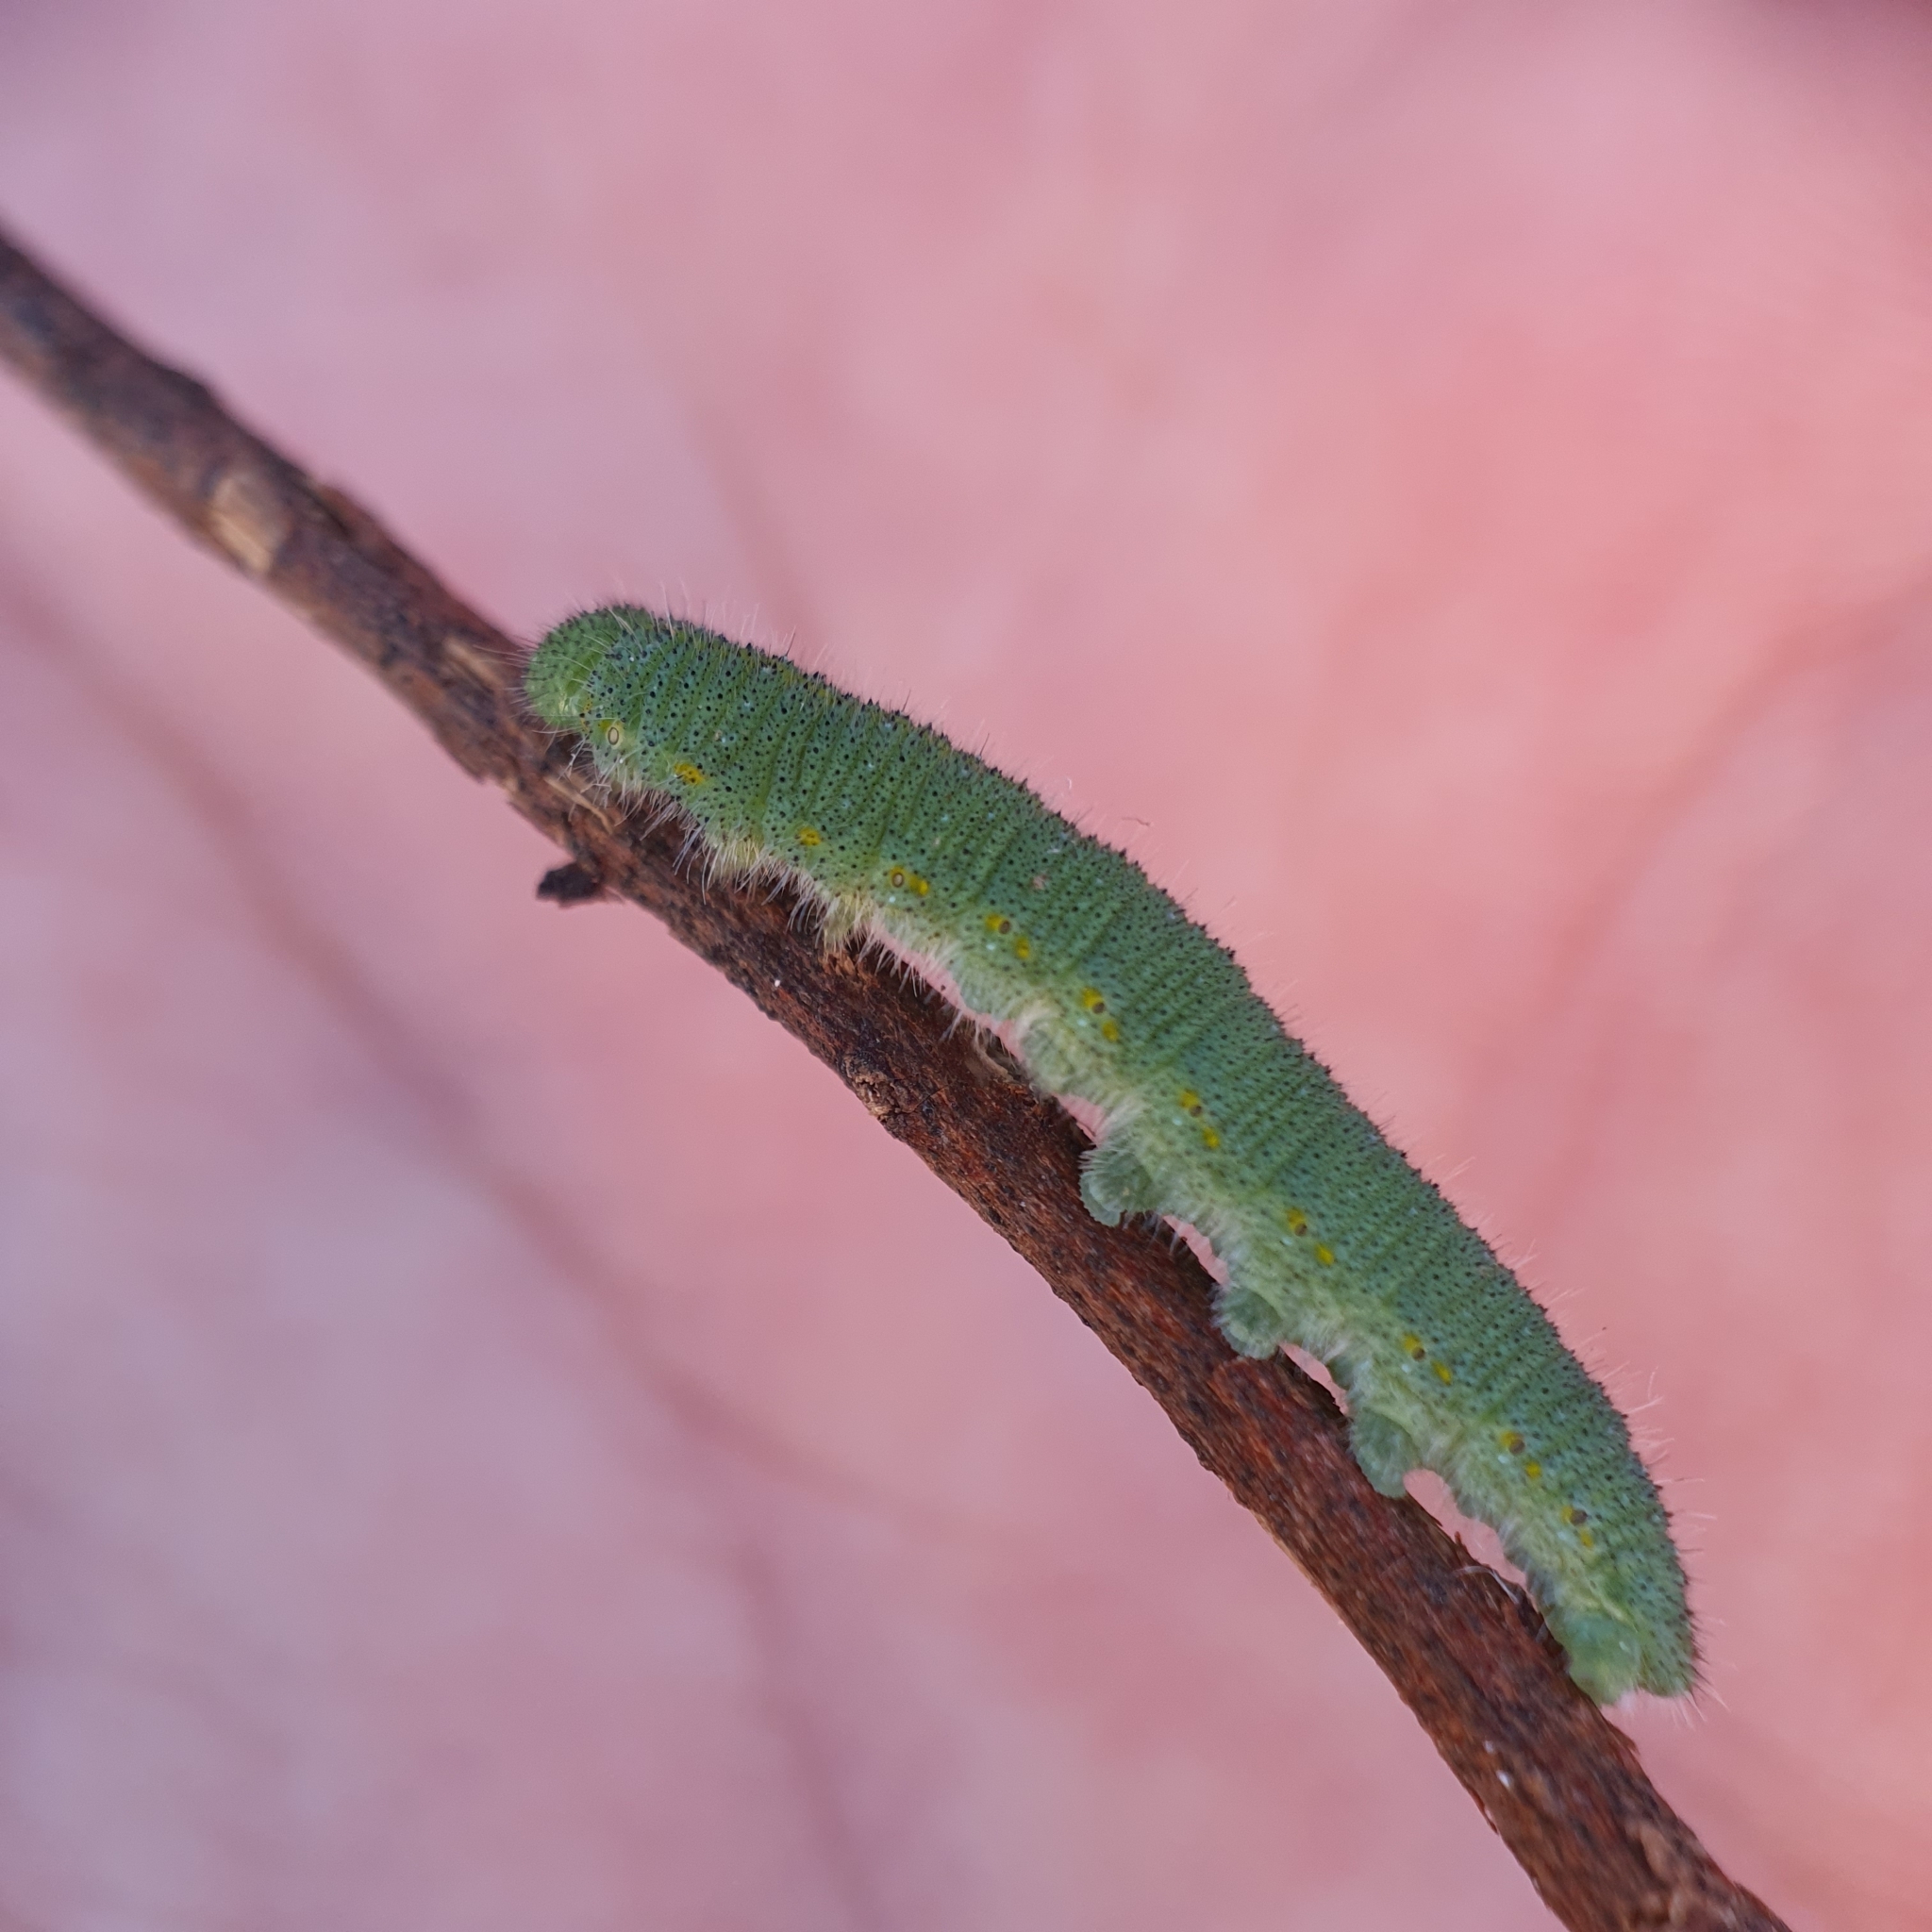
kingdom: Animalia
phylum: Arthropoda
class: Insecta
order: Lepidoptera
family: Pieridae
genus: Pieris
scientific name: Pieris rapae
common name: Small white
